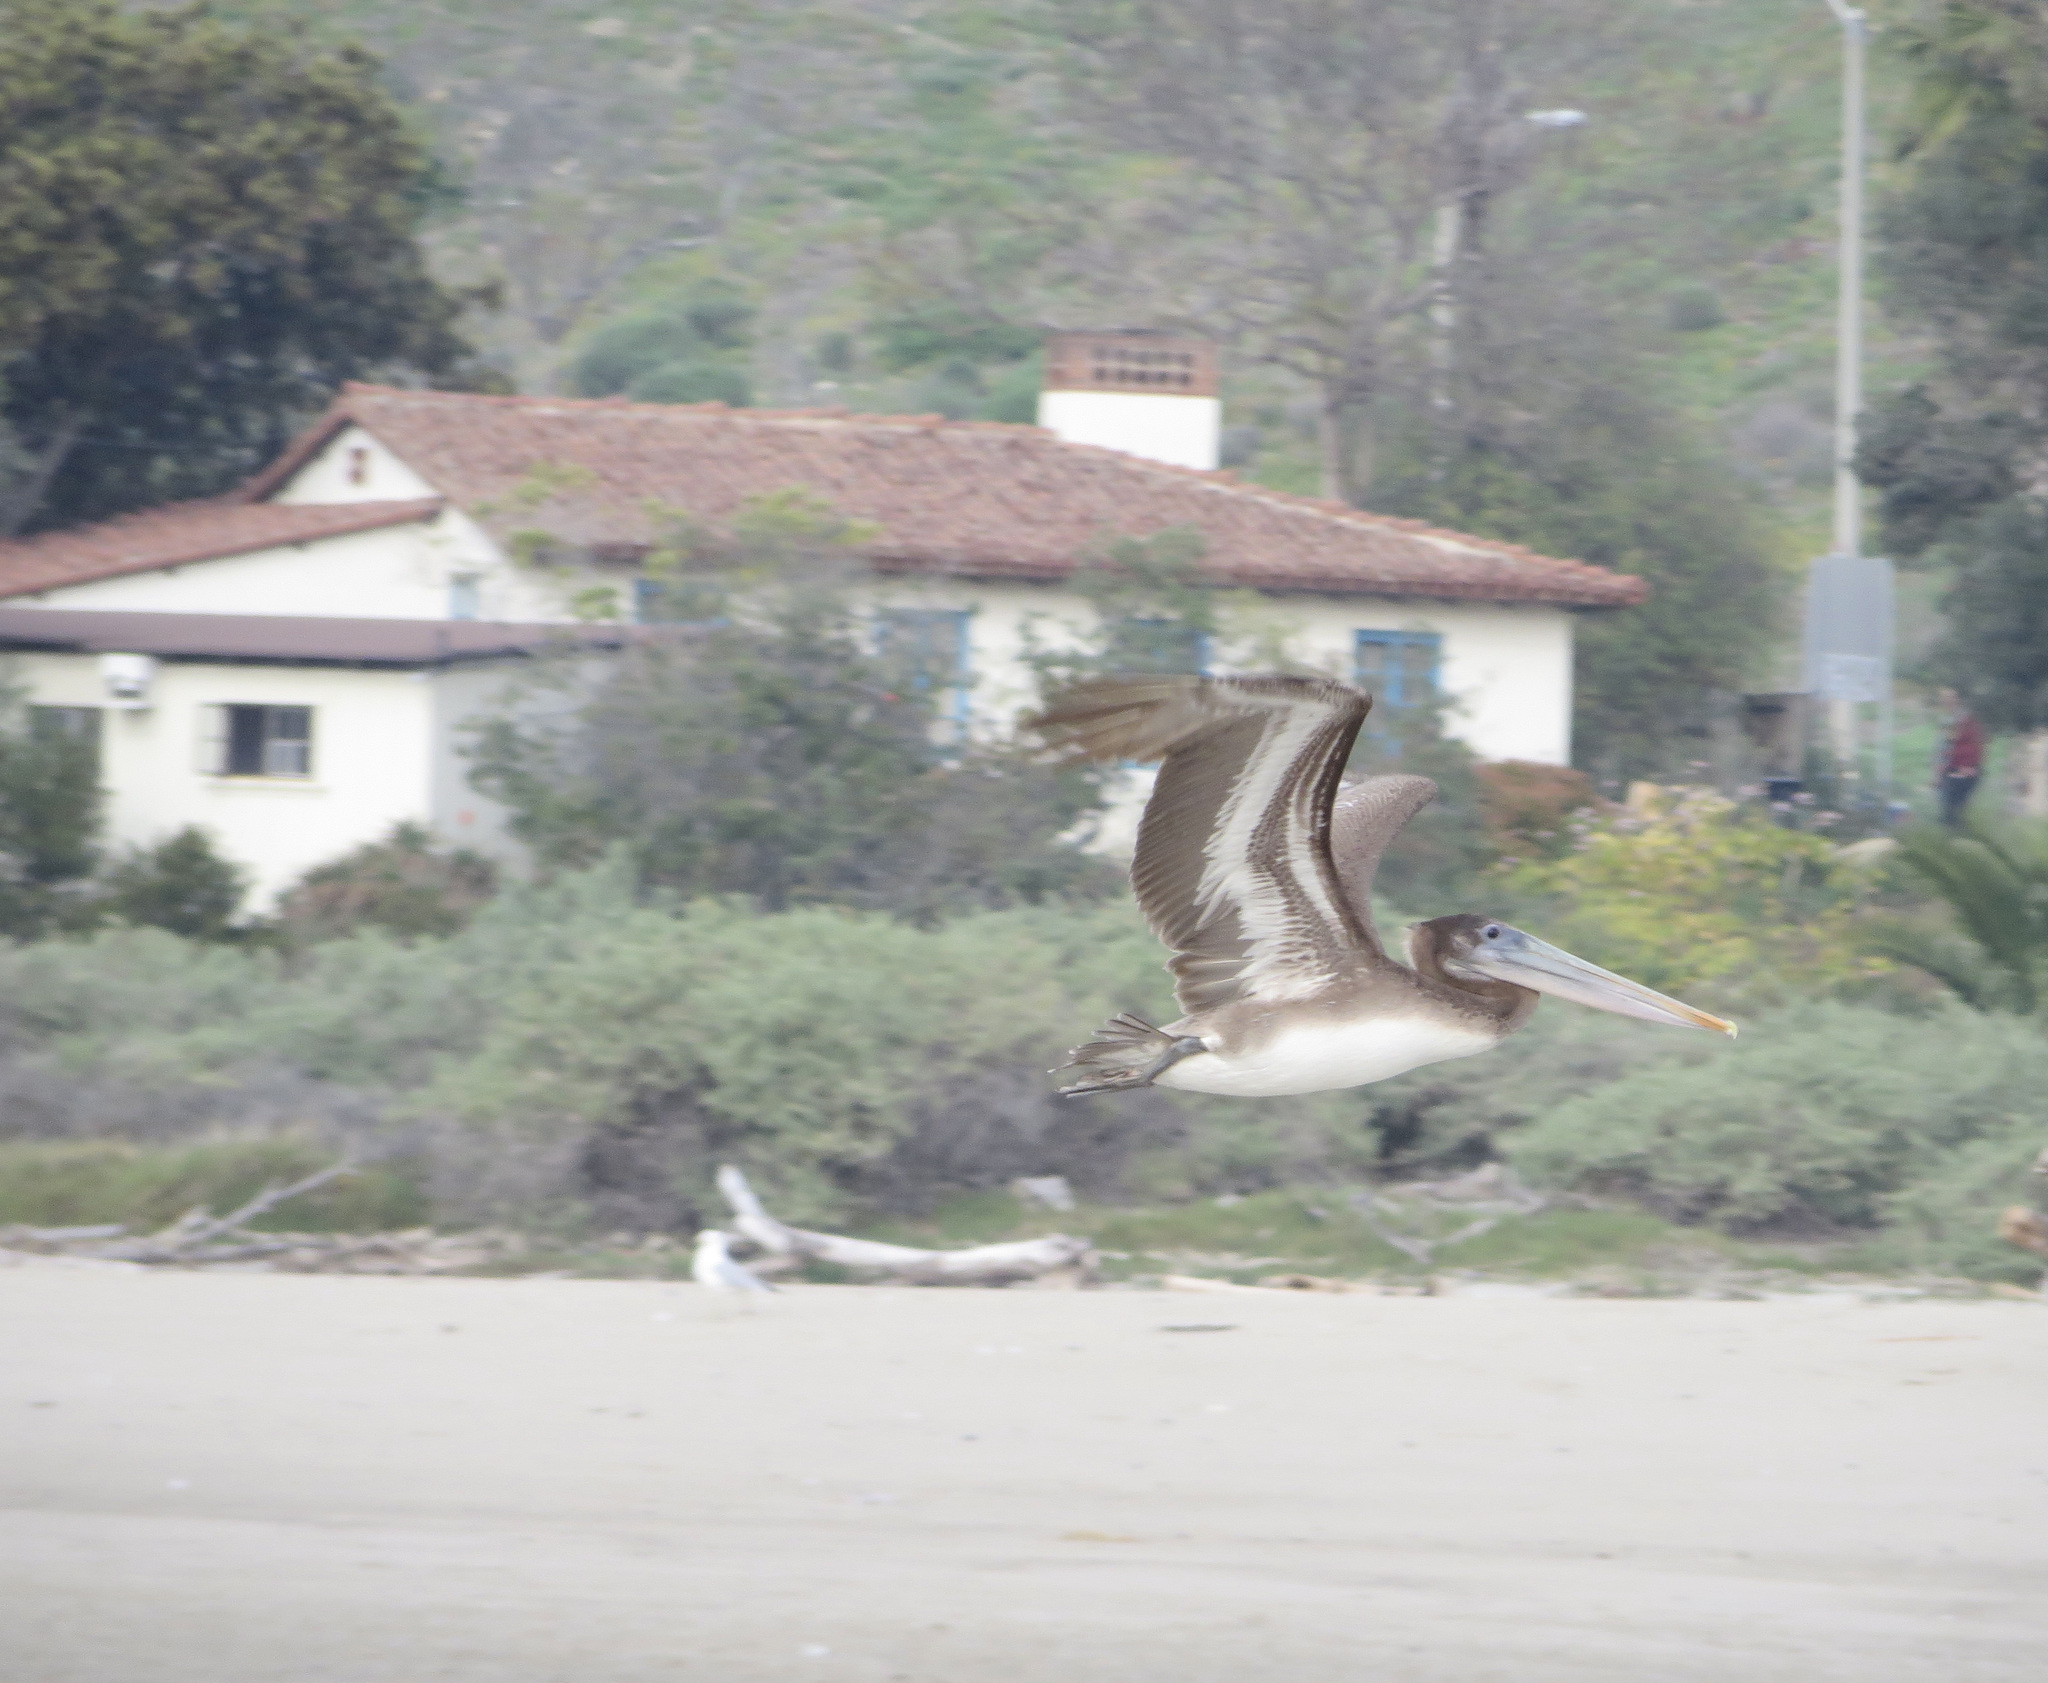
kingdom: Animalia
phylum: Chordata
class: Aves
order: Pelecaniformes
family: Pelecanidae
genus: Pelecanus
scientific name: Pelecanus occidentalis
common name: Brown pelican
